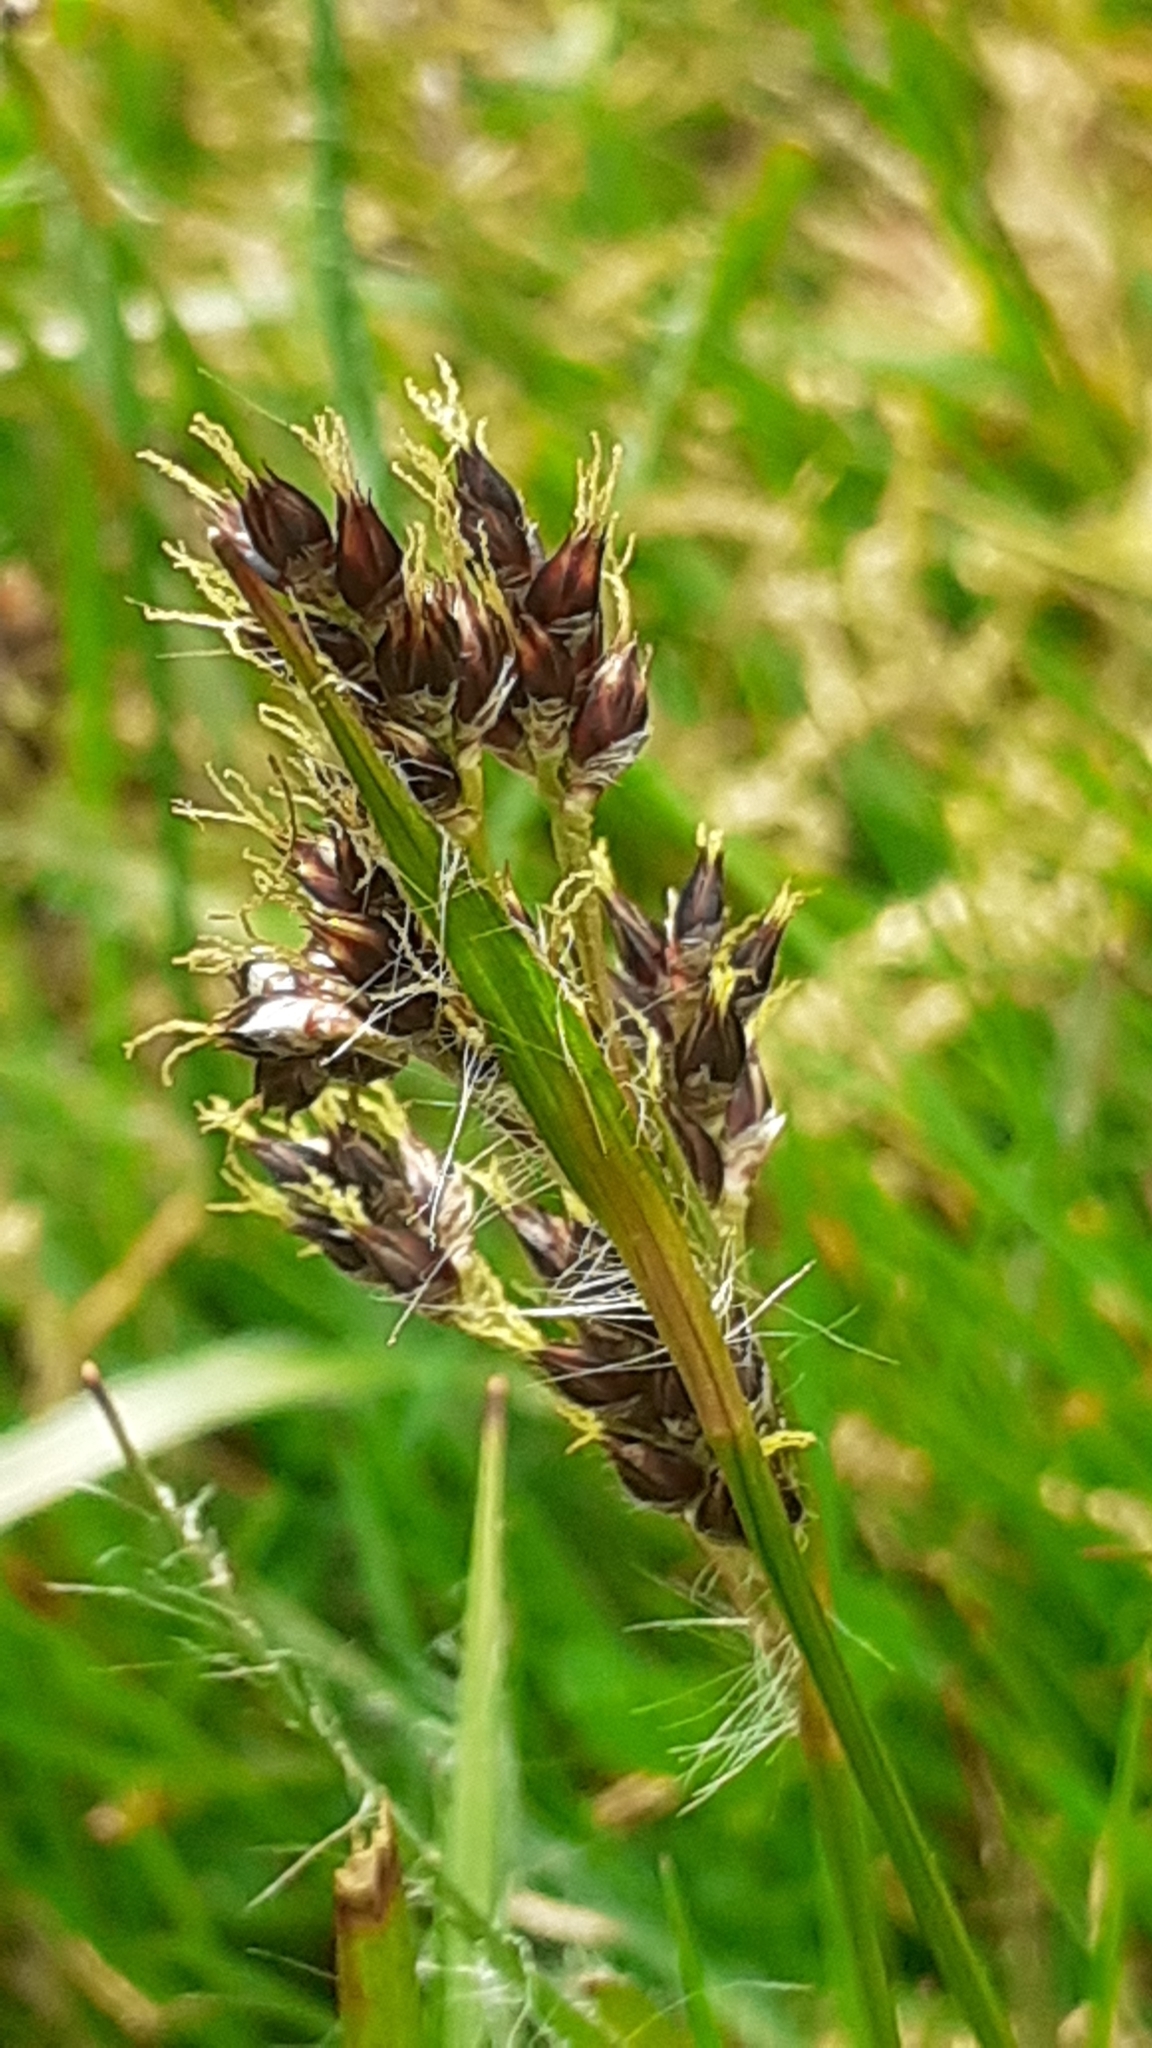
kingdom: Plantae
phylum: Tracheophyta
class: Liliopsida
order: Poales
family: Juncaceae
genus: Luzula
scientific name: Luzula campestris
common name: Field wood-rush
